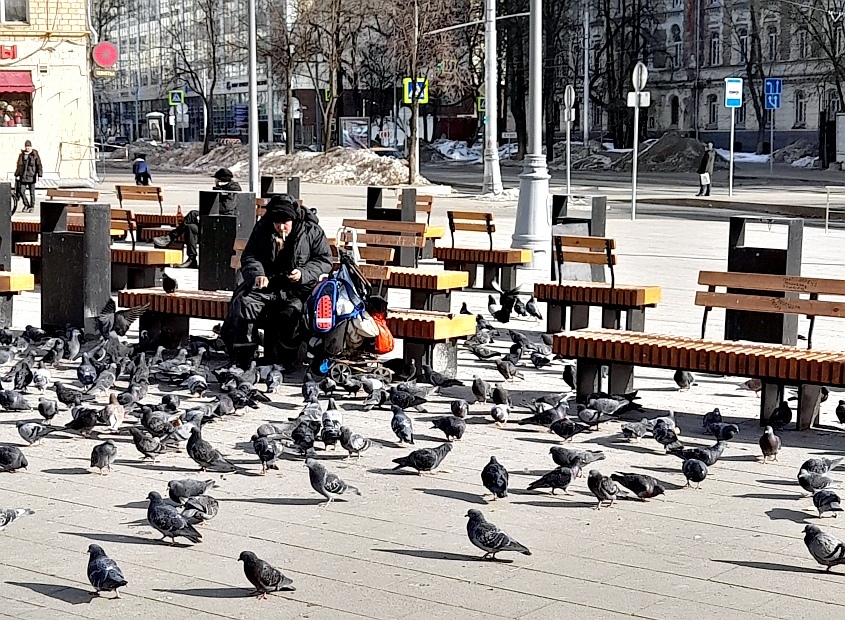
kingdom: Animalia
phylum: Chordata
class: Aves
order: Columbiformes
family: Columbidae
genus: Columba
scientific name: Columba livia
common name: Rock pigeon
